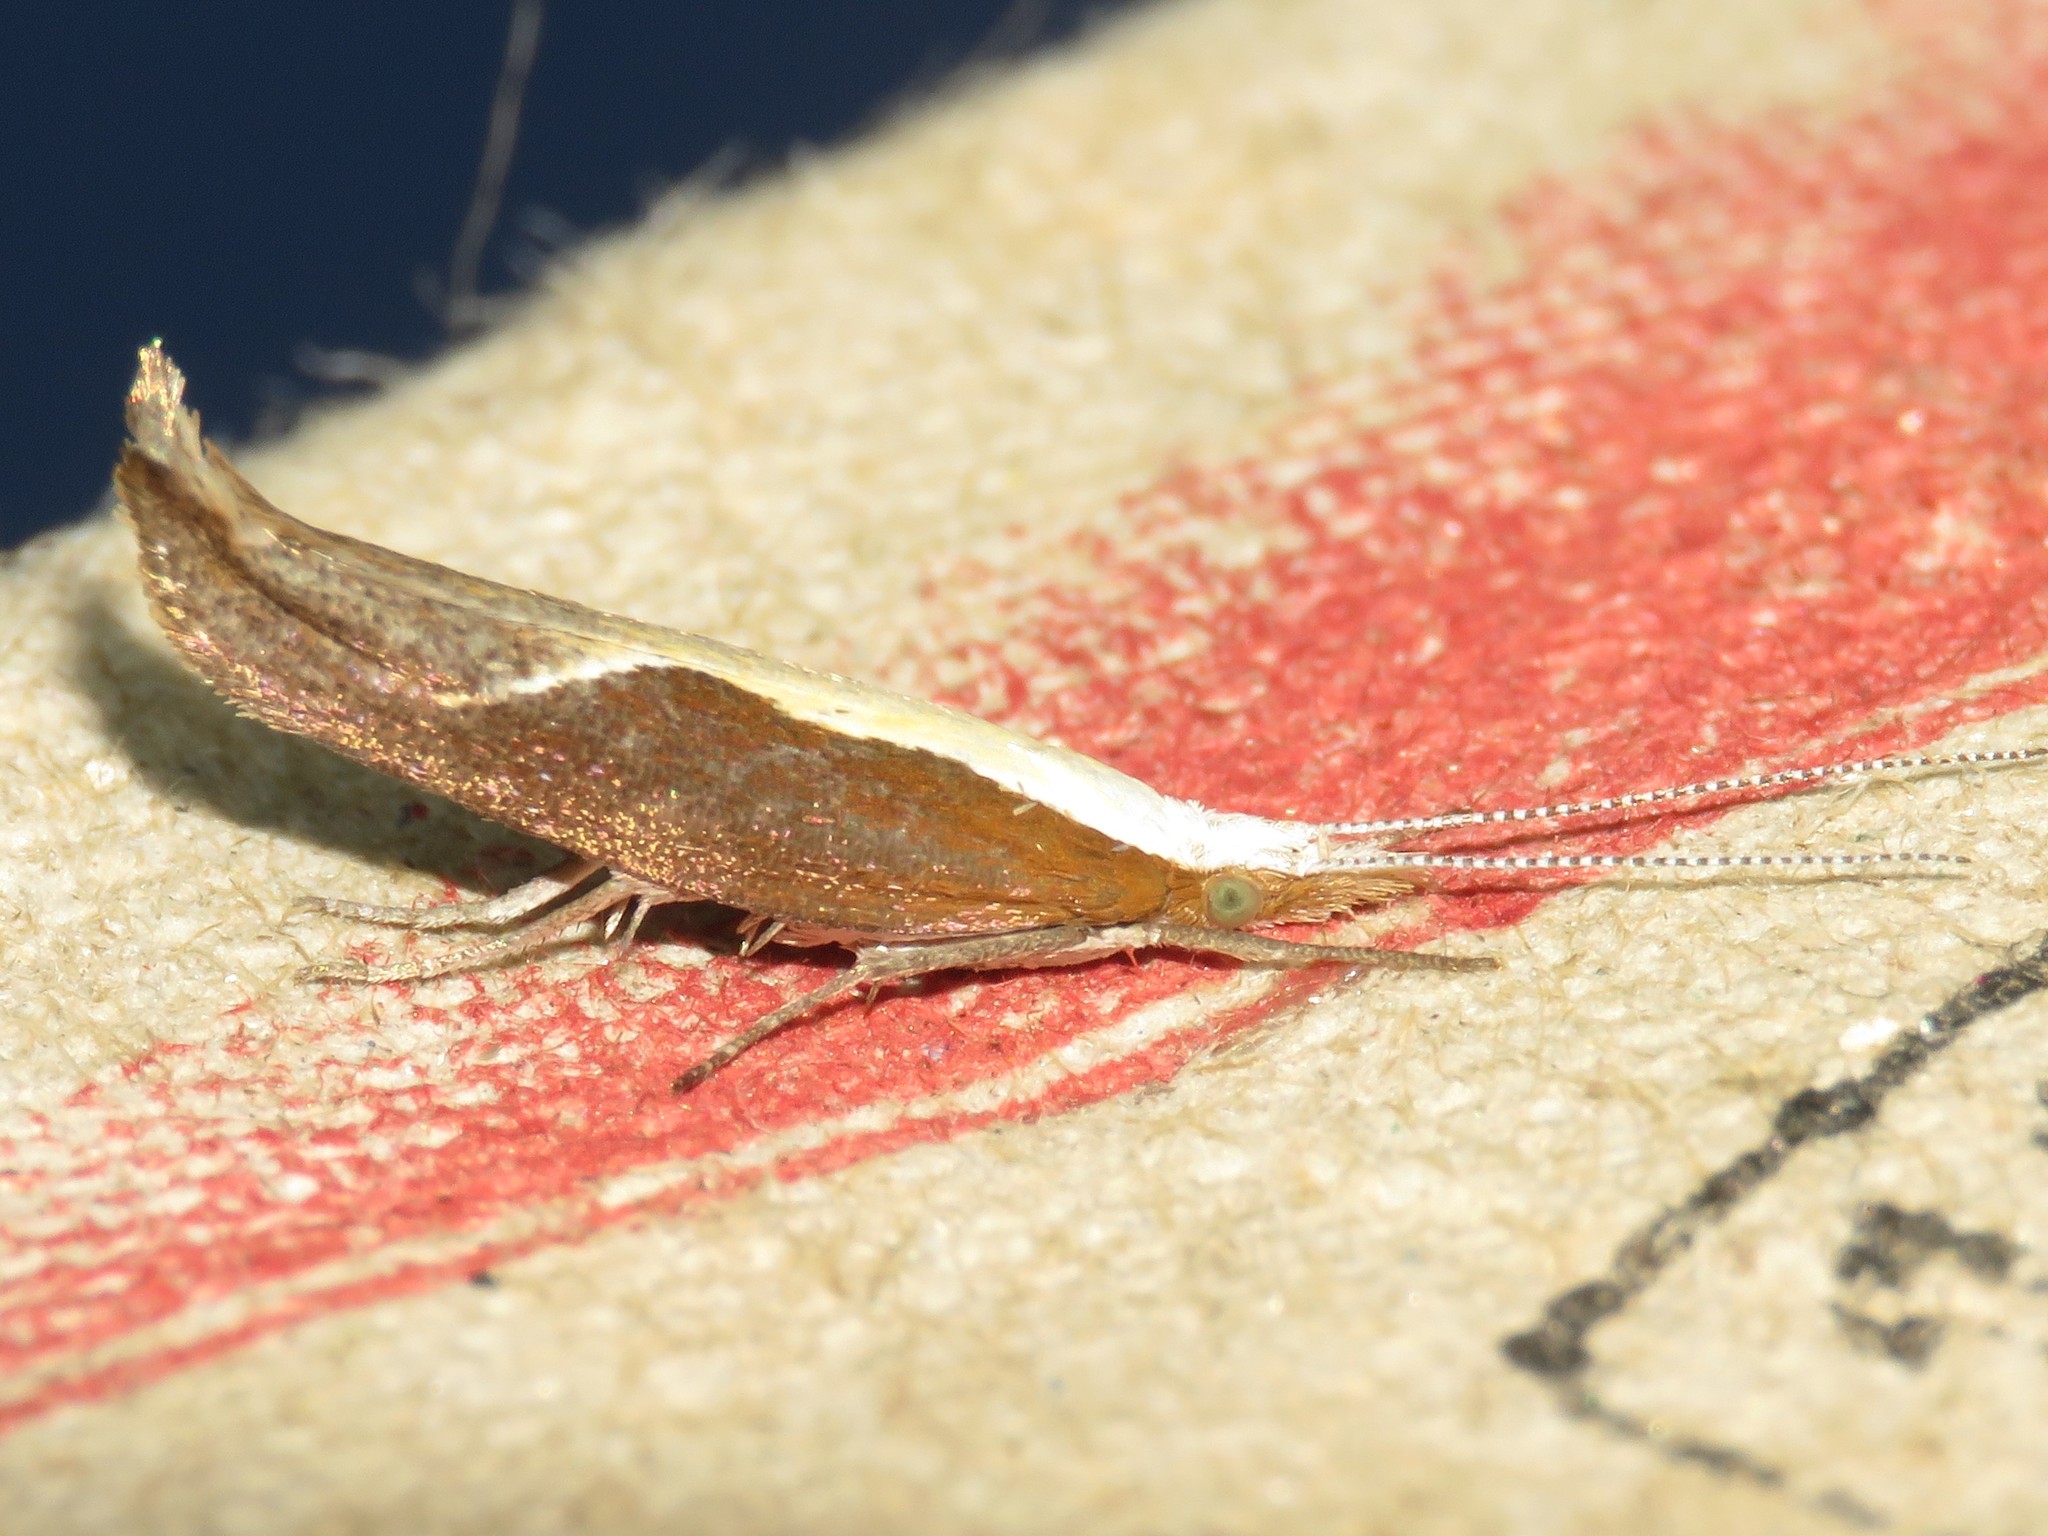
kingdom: Animalia
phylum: Arthropoda
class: Insecta
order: Lepidoptera
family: Ypsolophidae
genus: Ypsolopha
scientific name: Ypsolopha dentella
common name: Honeysuckle moth
